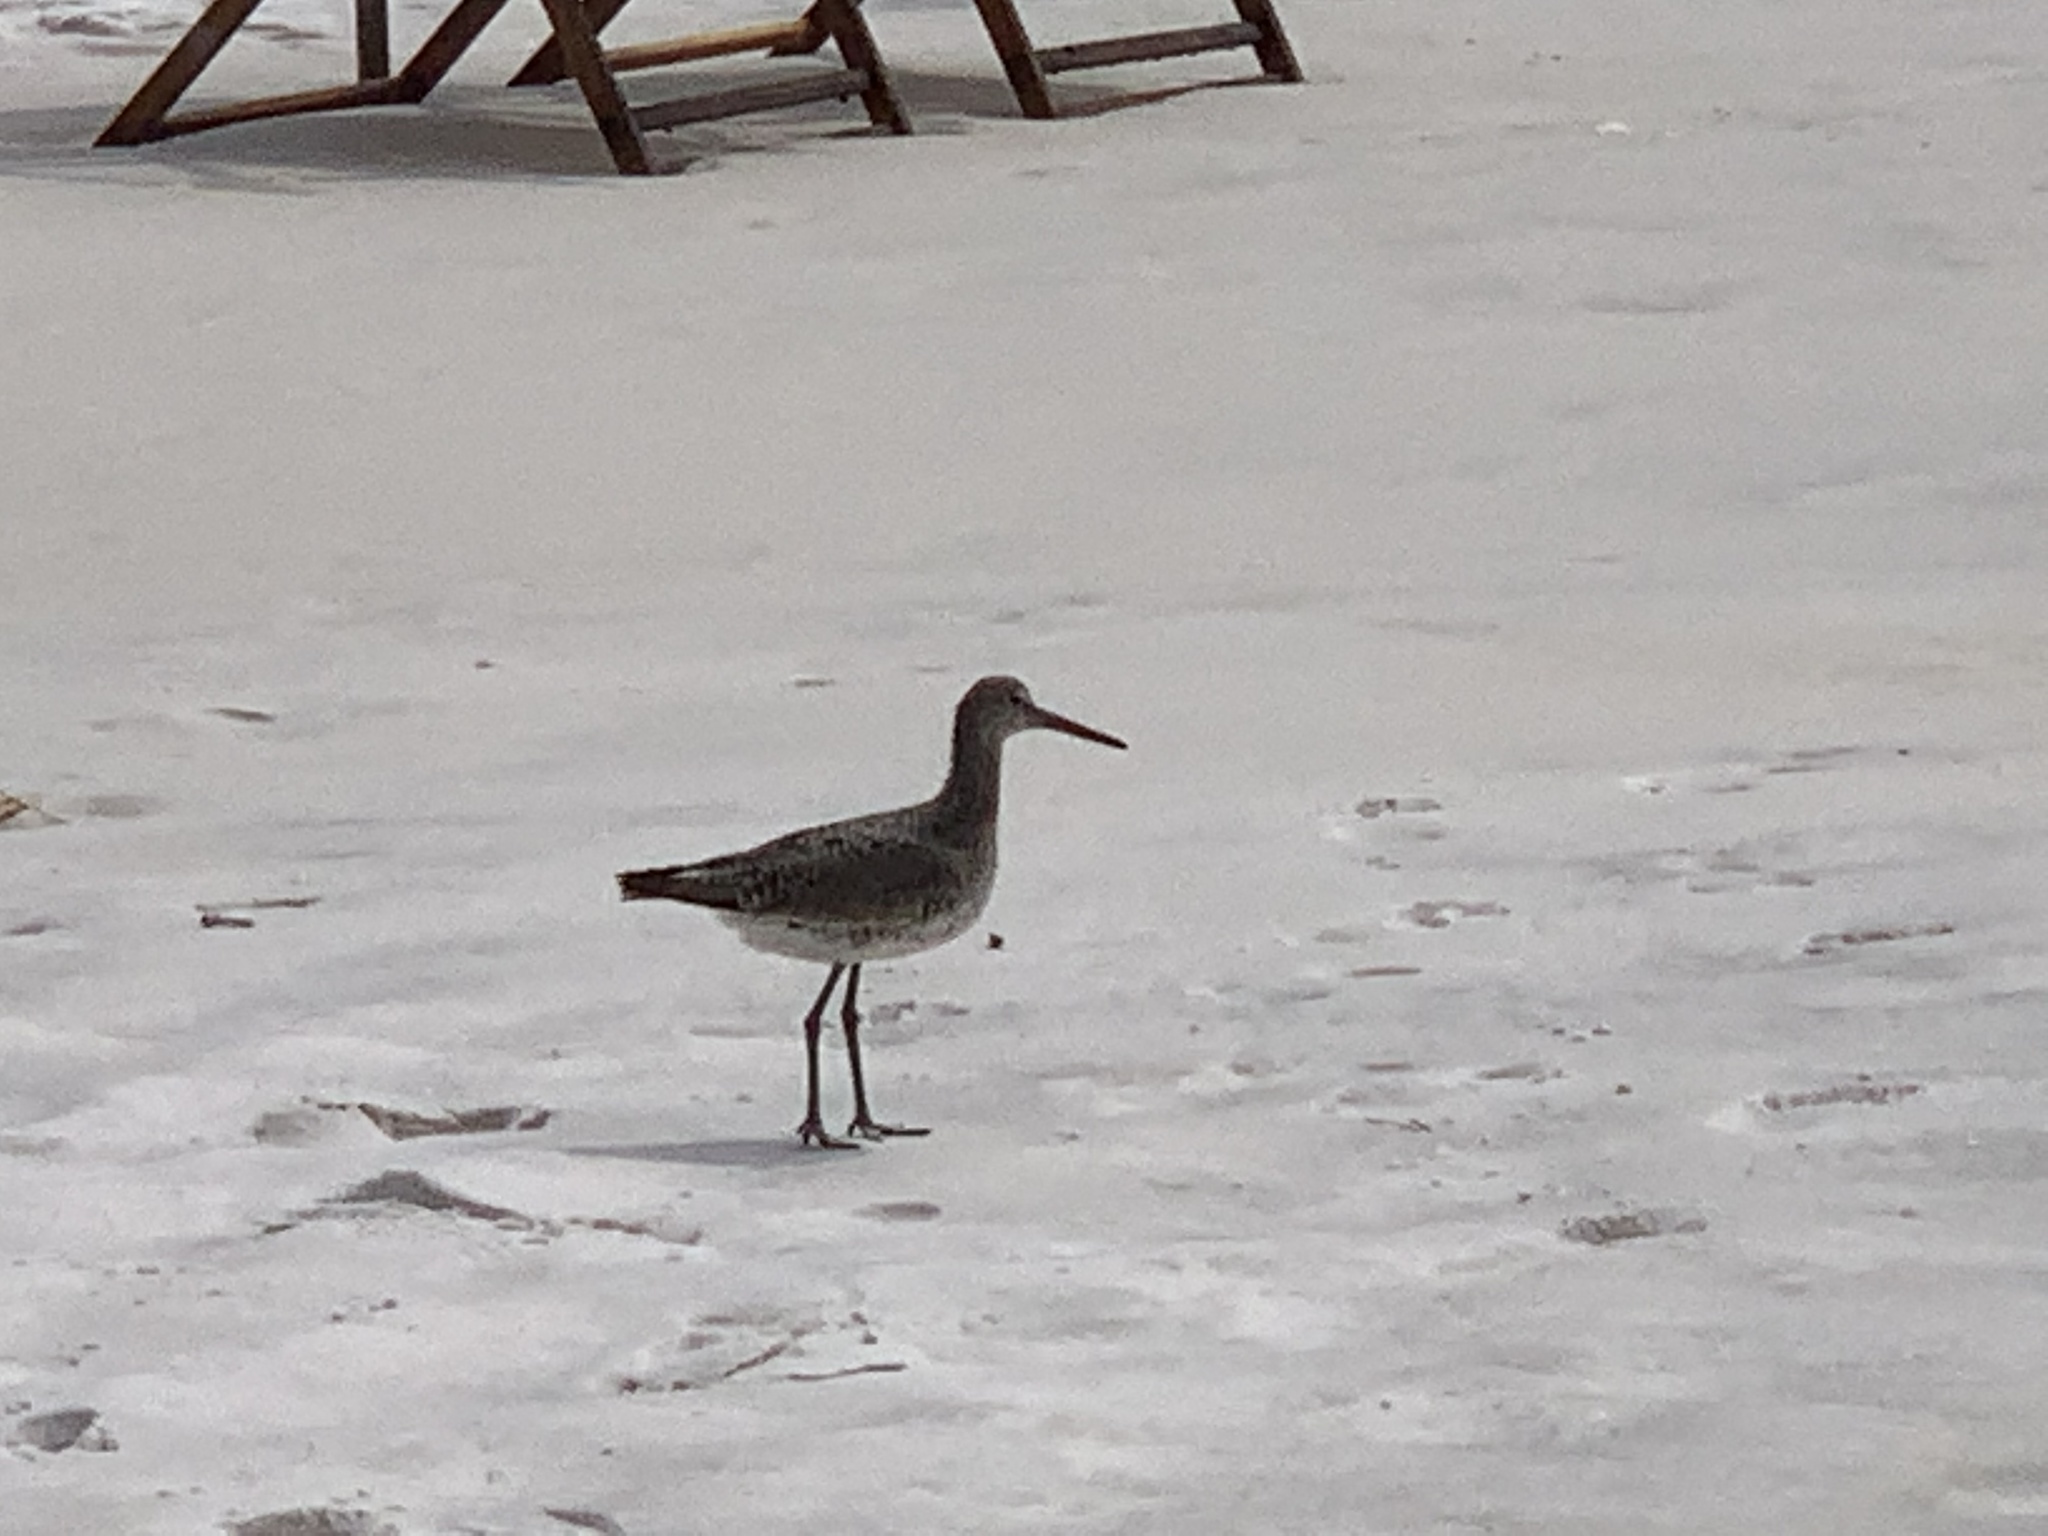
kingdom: Animalia
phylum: Chordata
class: Aves
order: Charadriiformes
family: Scolopacidae
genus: Tringa
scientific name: Tringa semipalmata
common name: Willet
